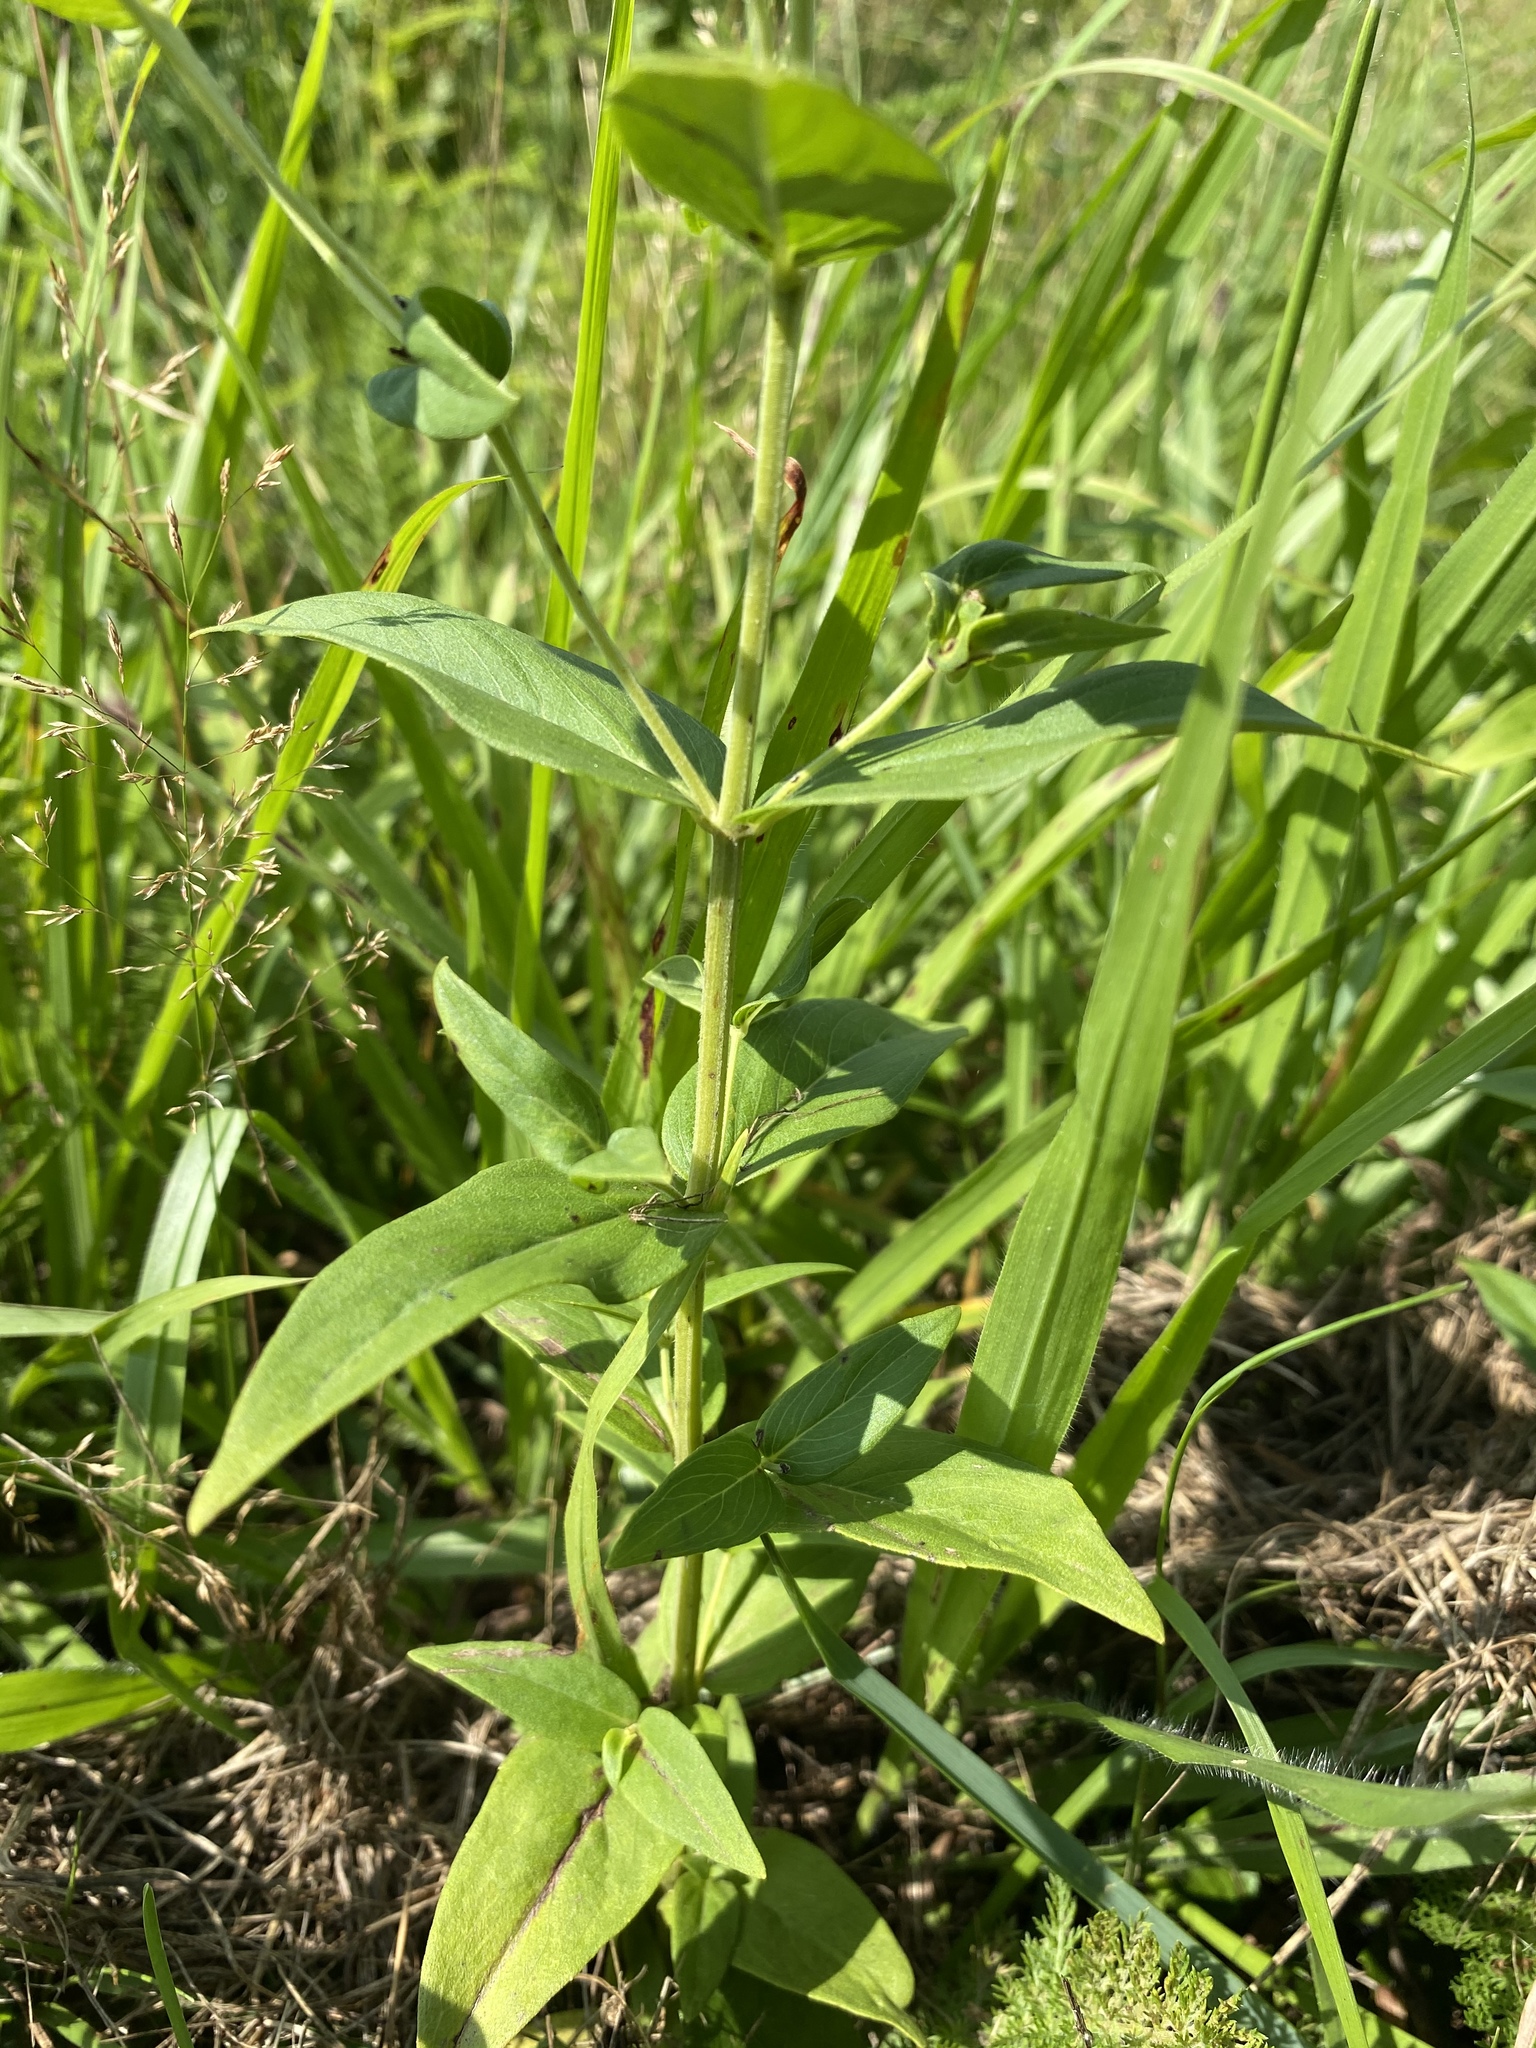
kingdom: Plantae
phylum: Tracheophyta
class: Magnoliopsida
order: Lamiales
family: Lamiaceae
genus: Pycnanthemum
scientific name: Pycnanthemum muticum
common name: Blunt mountain-mint
